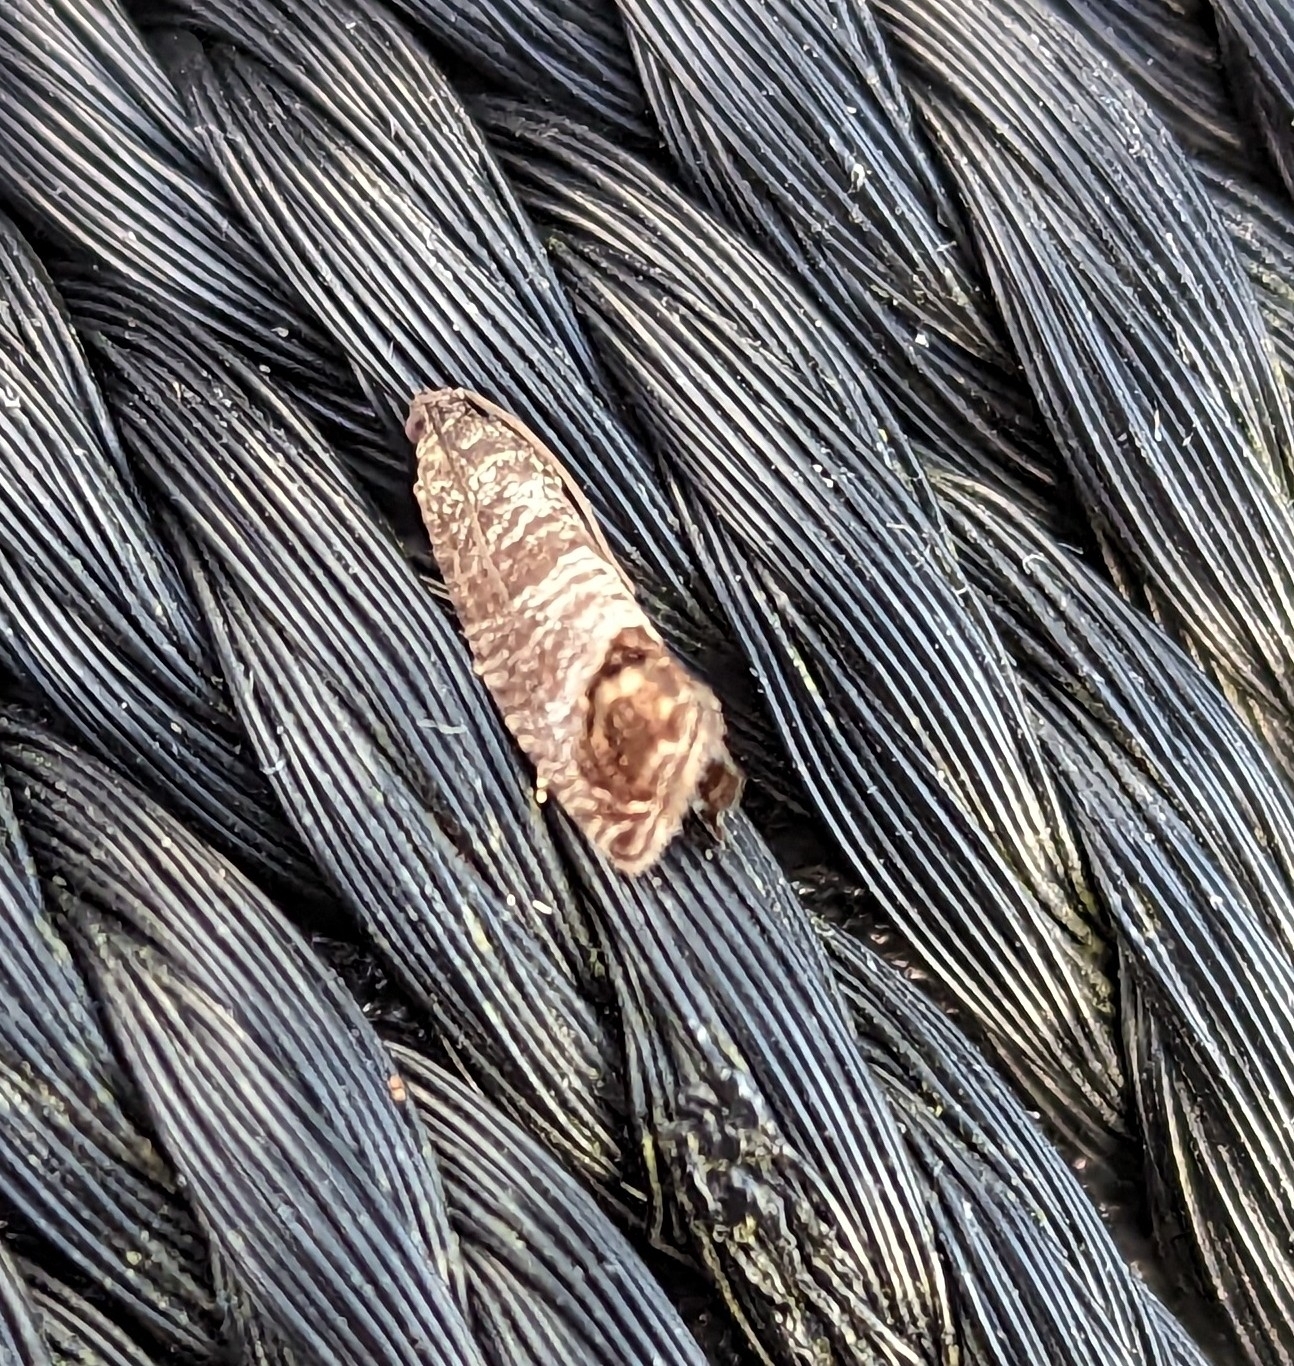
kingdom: Animalia
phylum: Arthropoda
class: Insecta
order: Lepidoptera
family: Tortricidae
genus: Cydia
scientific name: Cydia pomonella
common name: Codling moth
